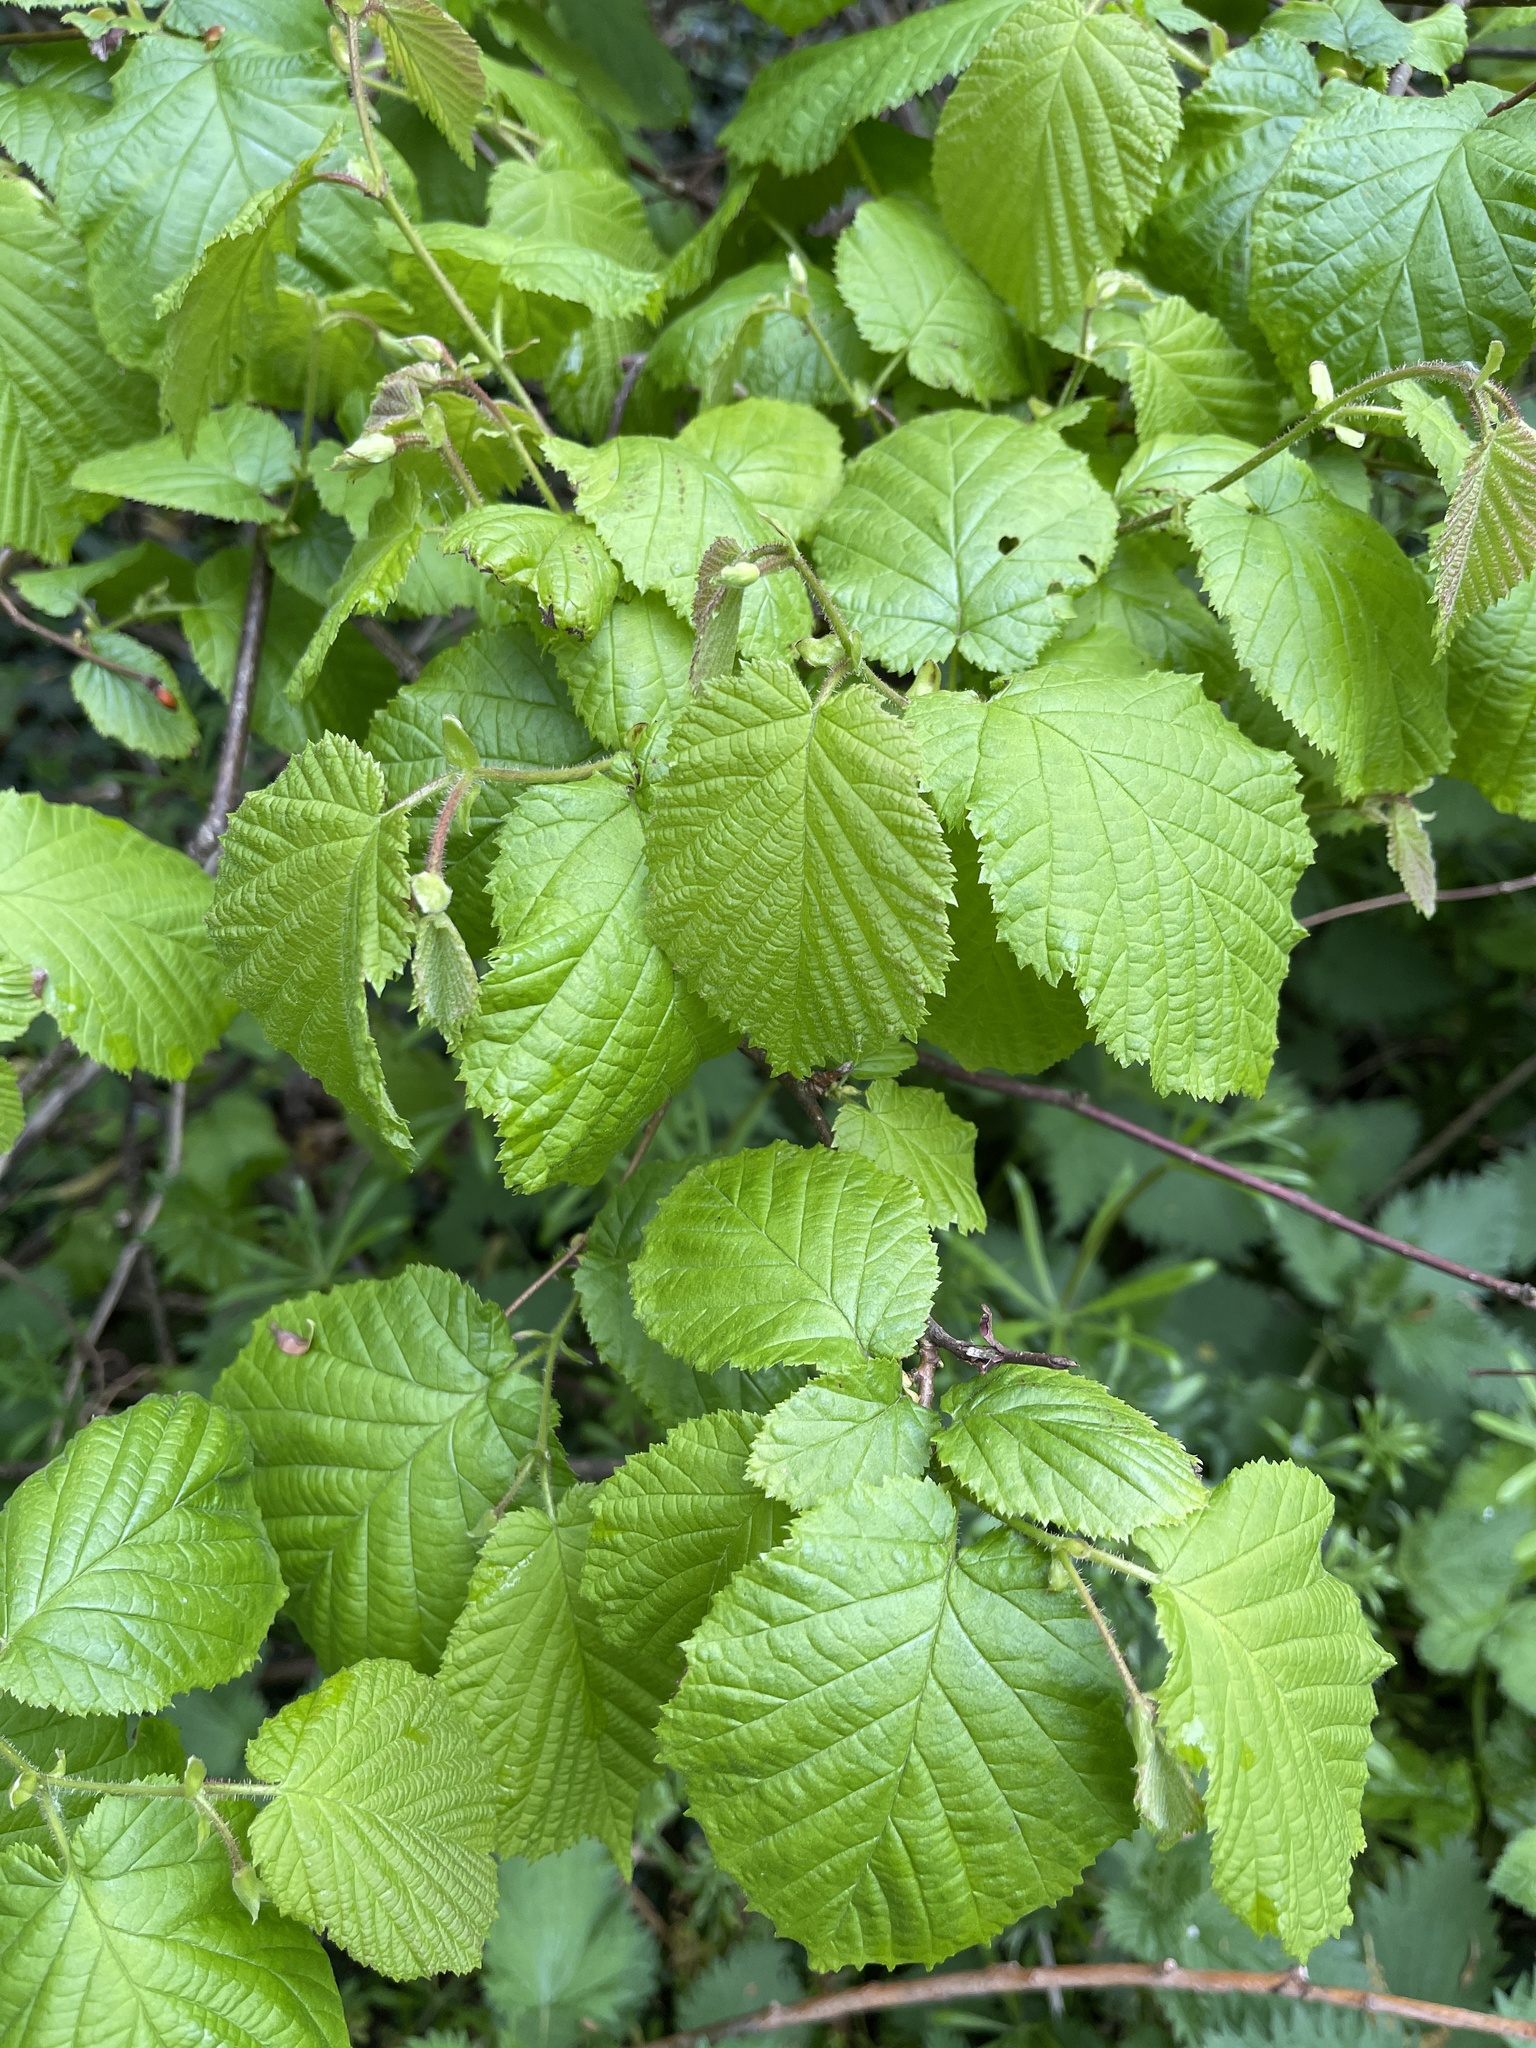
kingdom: Plantae
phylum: Tracheophyta
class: Magnoliopsida
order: Fagales
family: Betulaceae
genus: Corylus
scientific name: Corylus avellana
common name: European hazel
